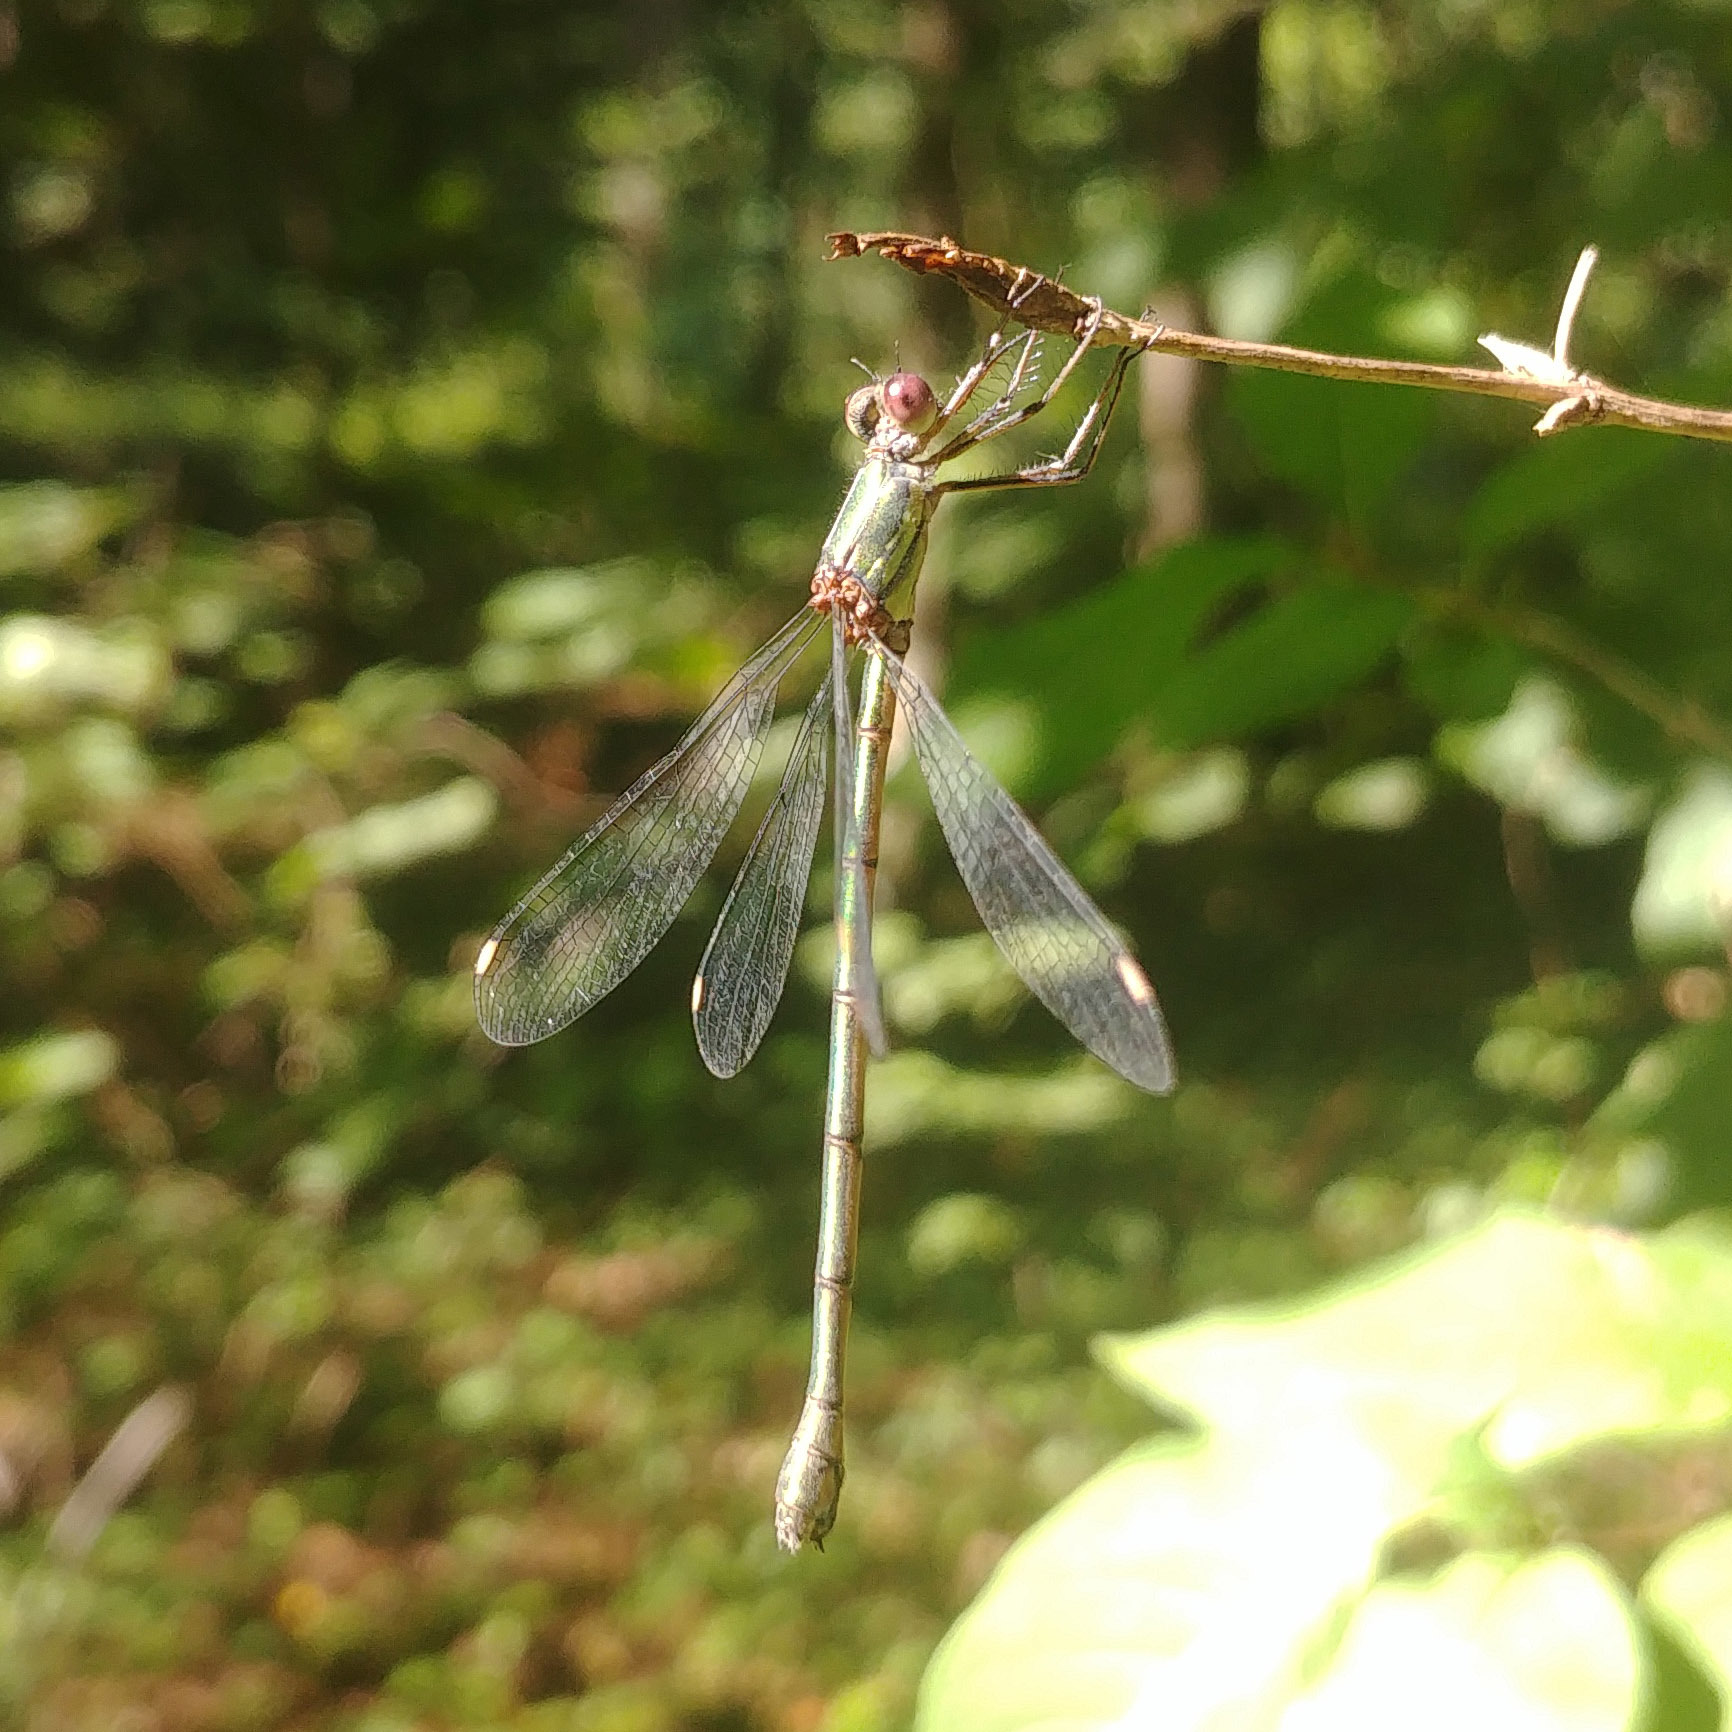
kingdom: Animalia
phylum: Arthropoda
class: Insecta
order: Odonata
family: Lestidae
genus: Chalcolestes
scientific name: Chalcolestes viridis
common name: Green emerald damselfly
